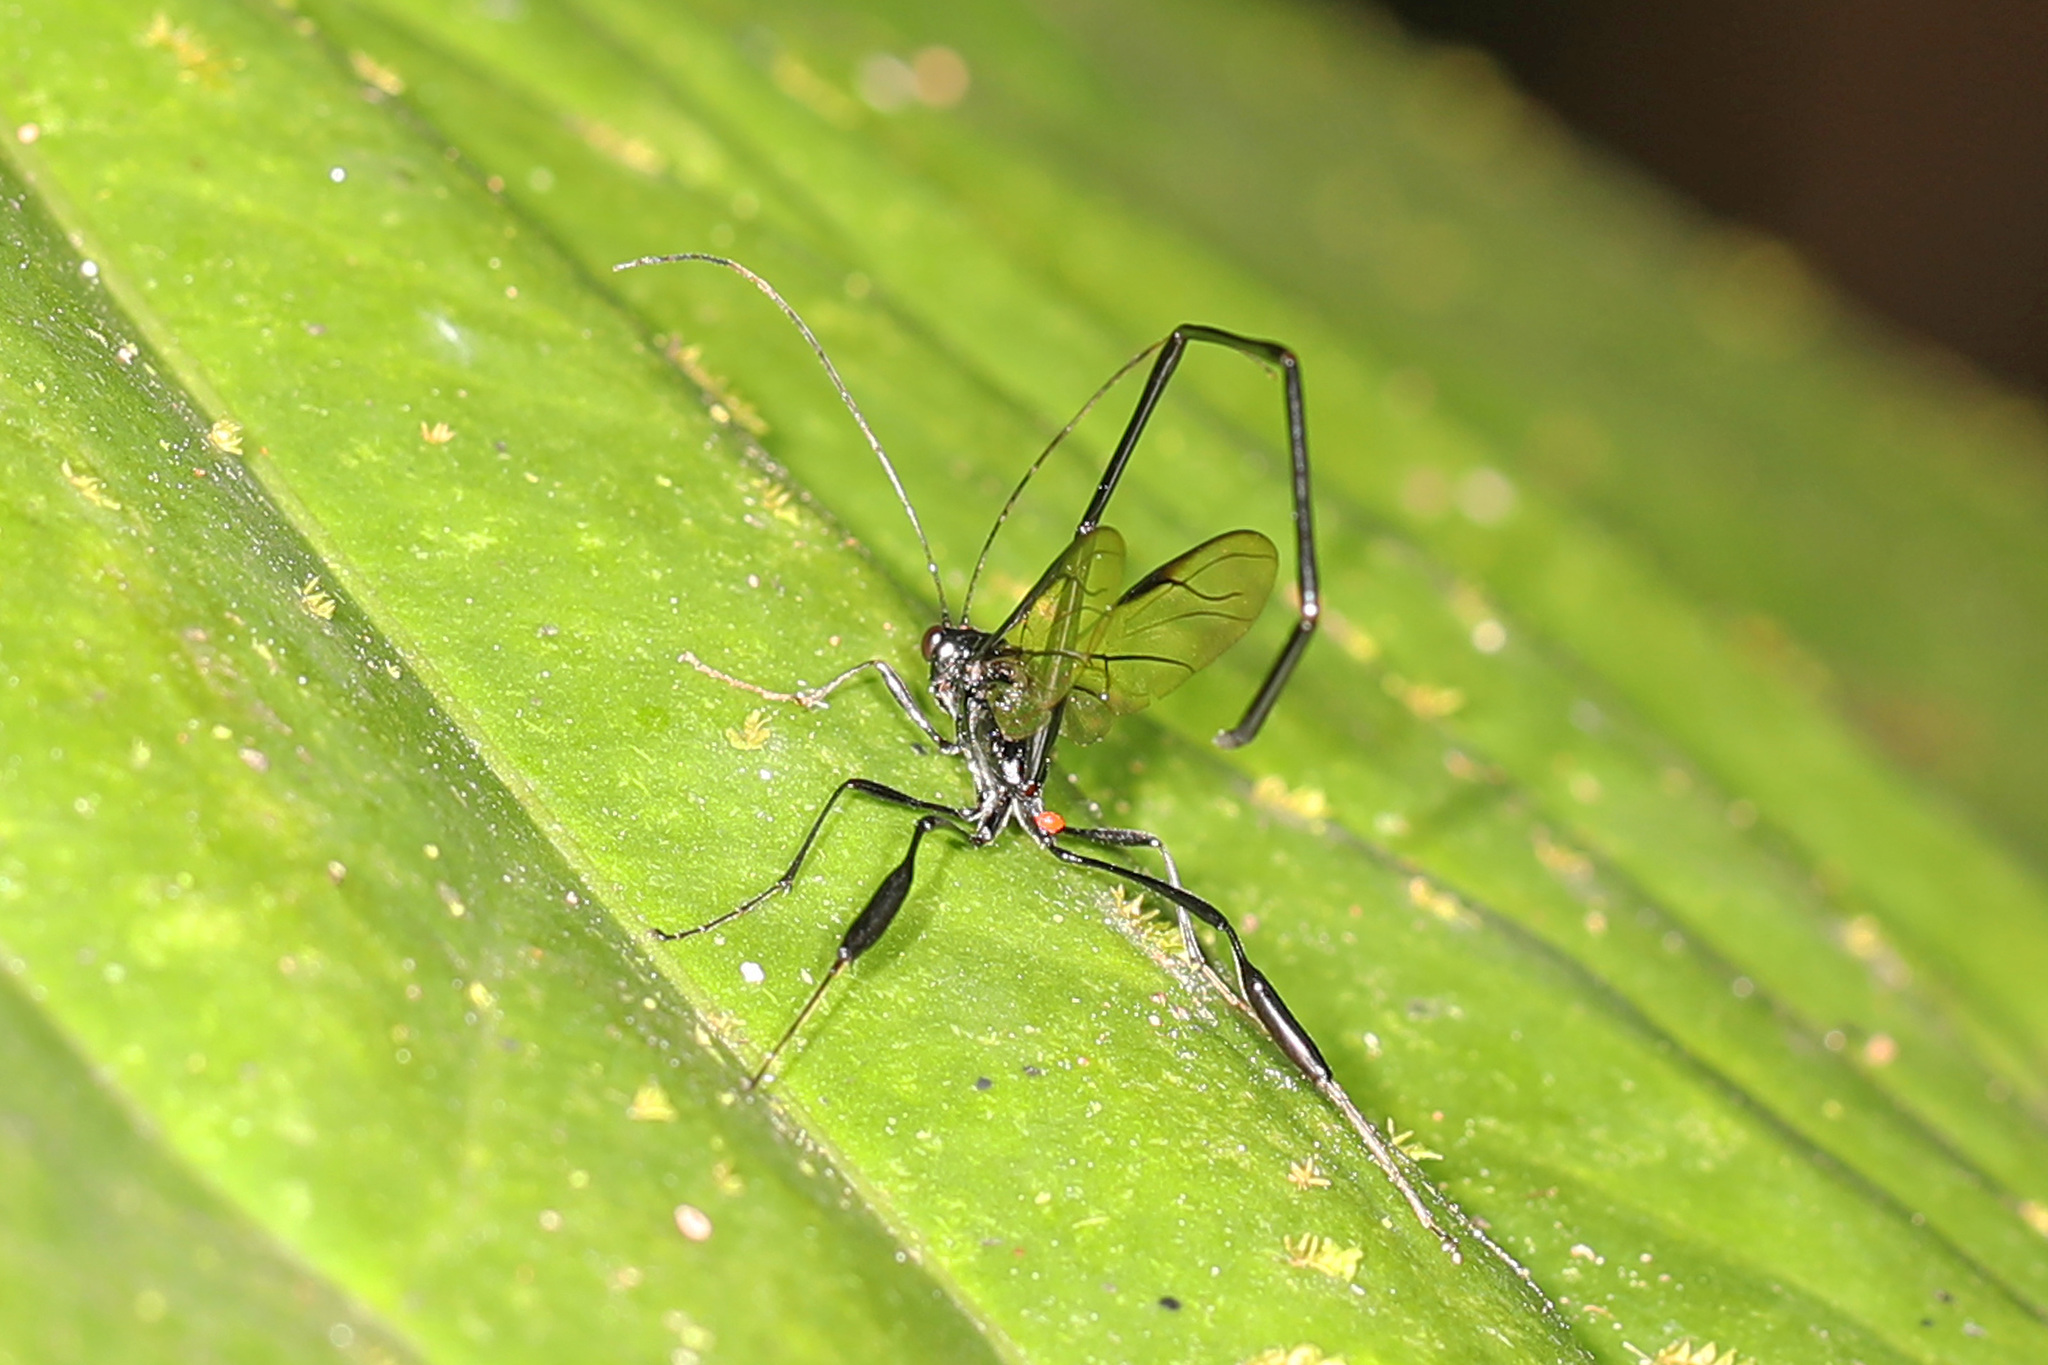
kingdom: Animalia
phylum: Arthropoda
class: Insecta
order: Hymenoptera
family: Pelecinidae
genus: Pelecinus
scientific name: Pelecinus polyturator
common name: American pelecinid wasp
